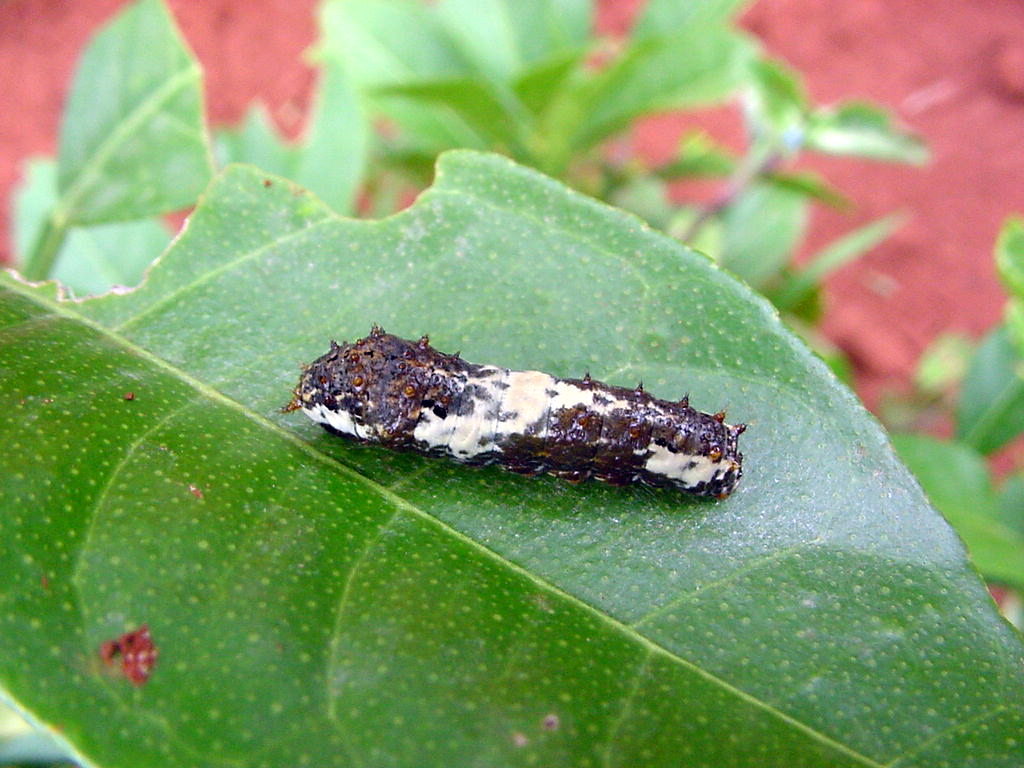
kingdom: Animalia
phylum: Arthropoda
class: Insecta
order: Lepidoptera
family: Papilionidae
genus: Papilio
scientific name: Papilio demoleus
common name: Lime butterfly
